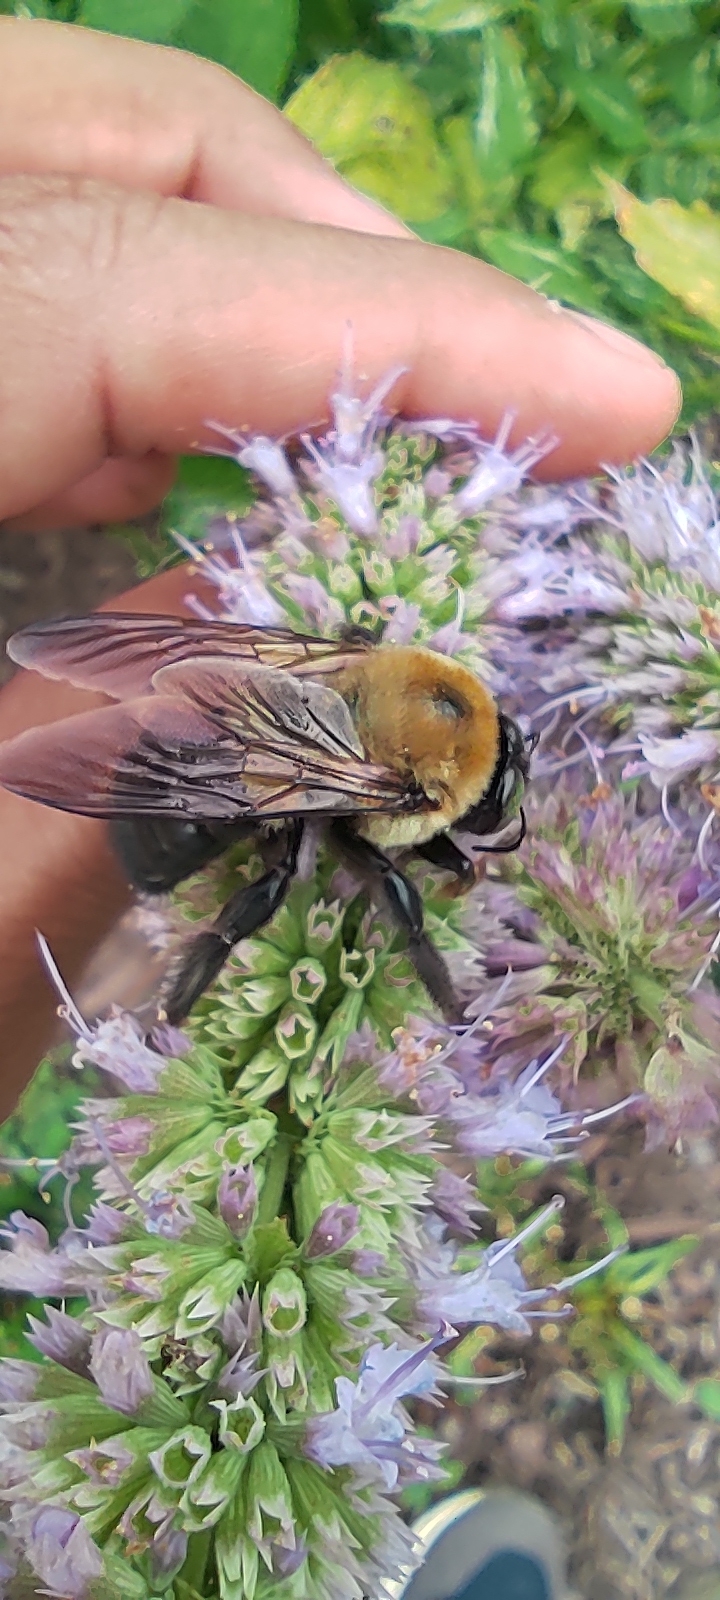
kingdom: Animalia
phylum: Arthropoda
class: Insecta
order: Hymenoptera
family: Apidae
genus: Xylocopa
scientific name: Xylocopa virginica
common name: Carpenter bee
